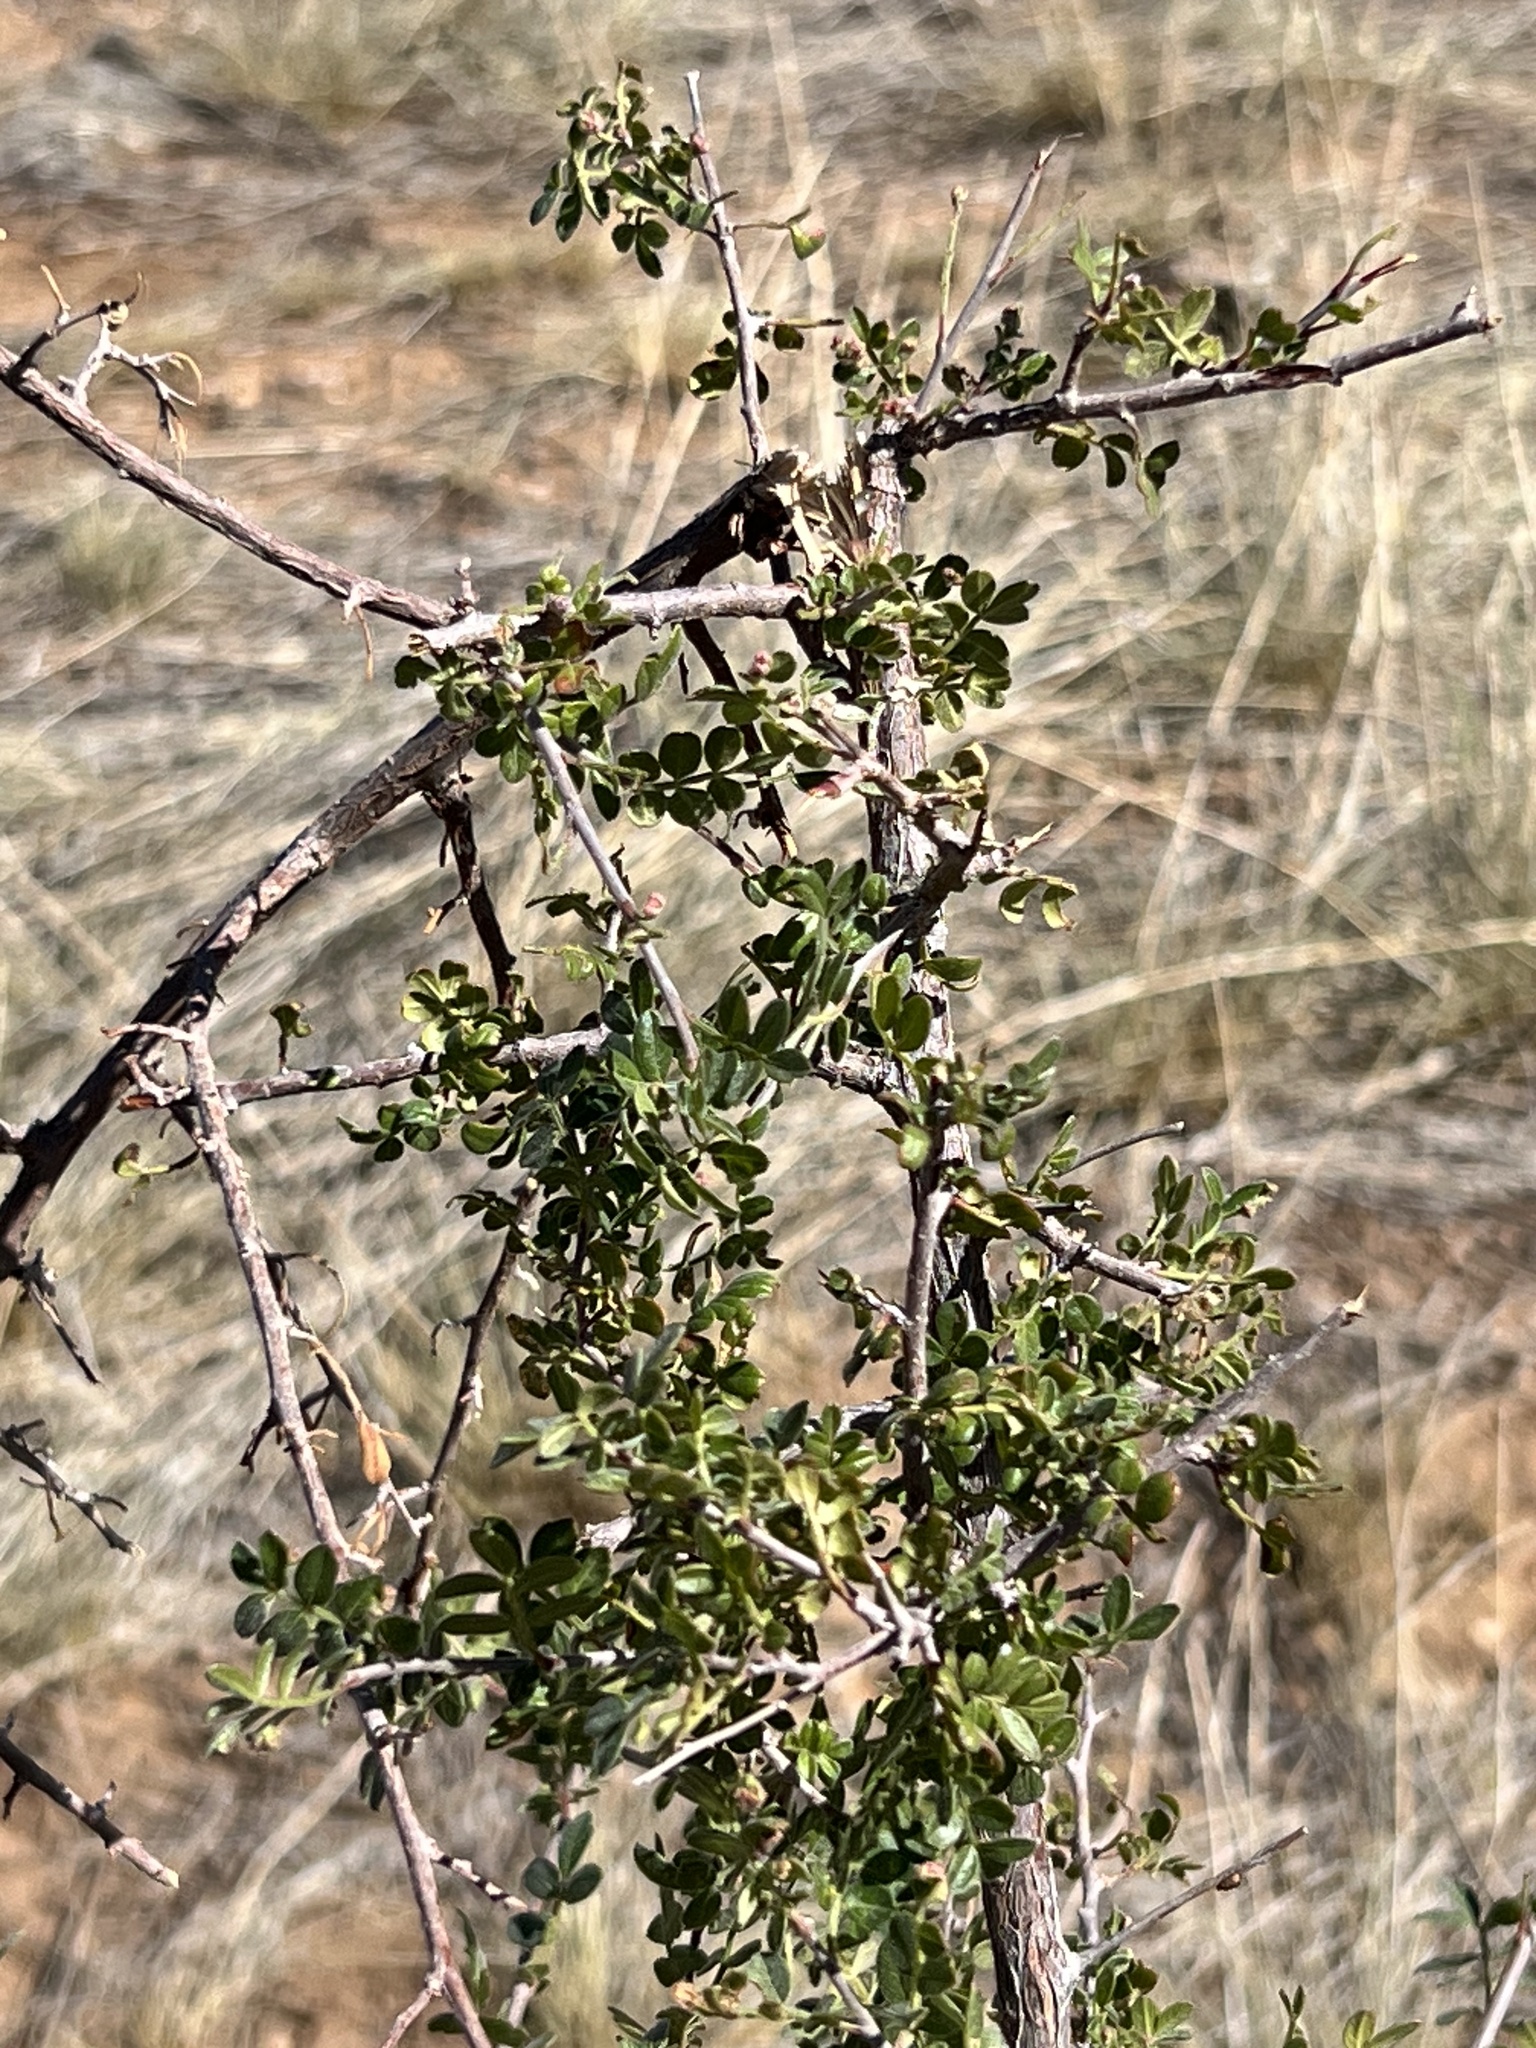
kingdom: Plantae
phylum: Tracheophyta
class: Magnoliopsida
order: Sapindales
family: Anacardiaceae
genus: Rhus
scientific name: Rhus microphylla
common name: Desert sumac
